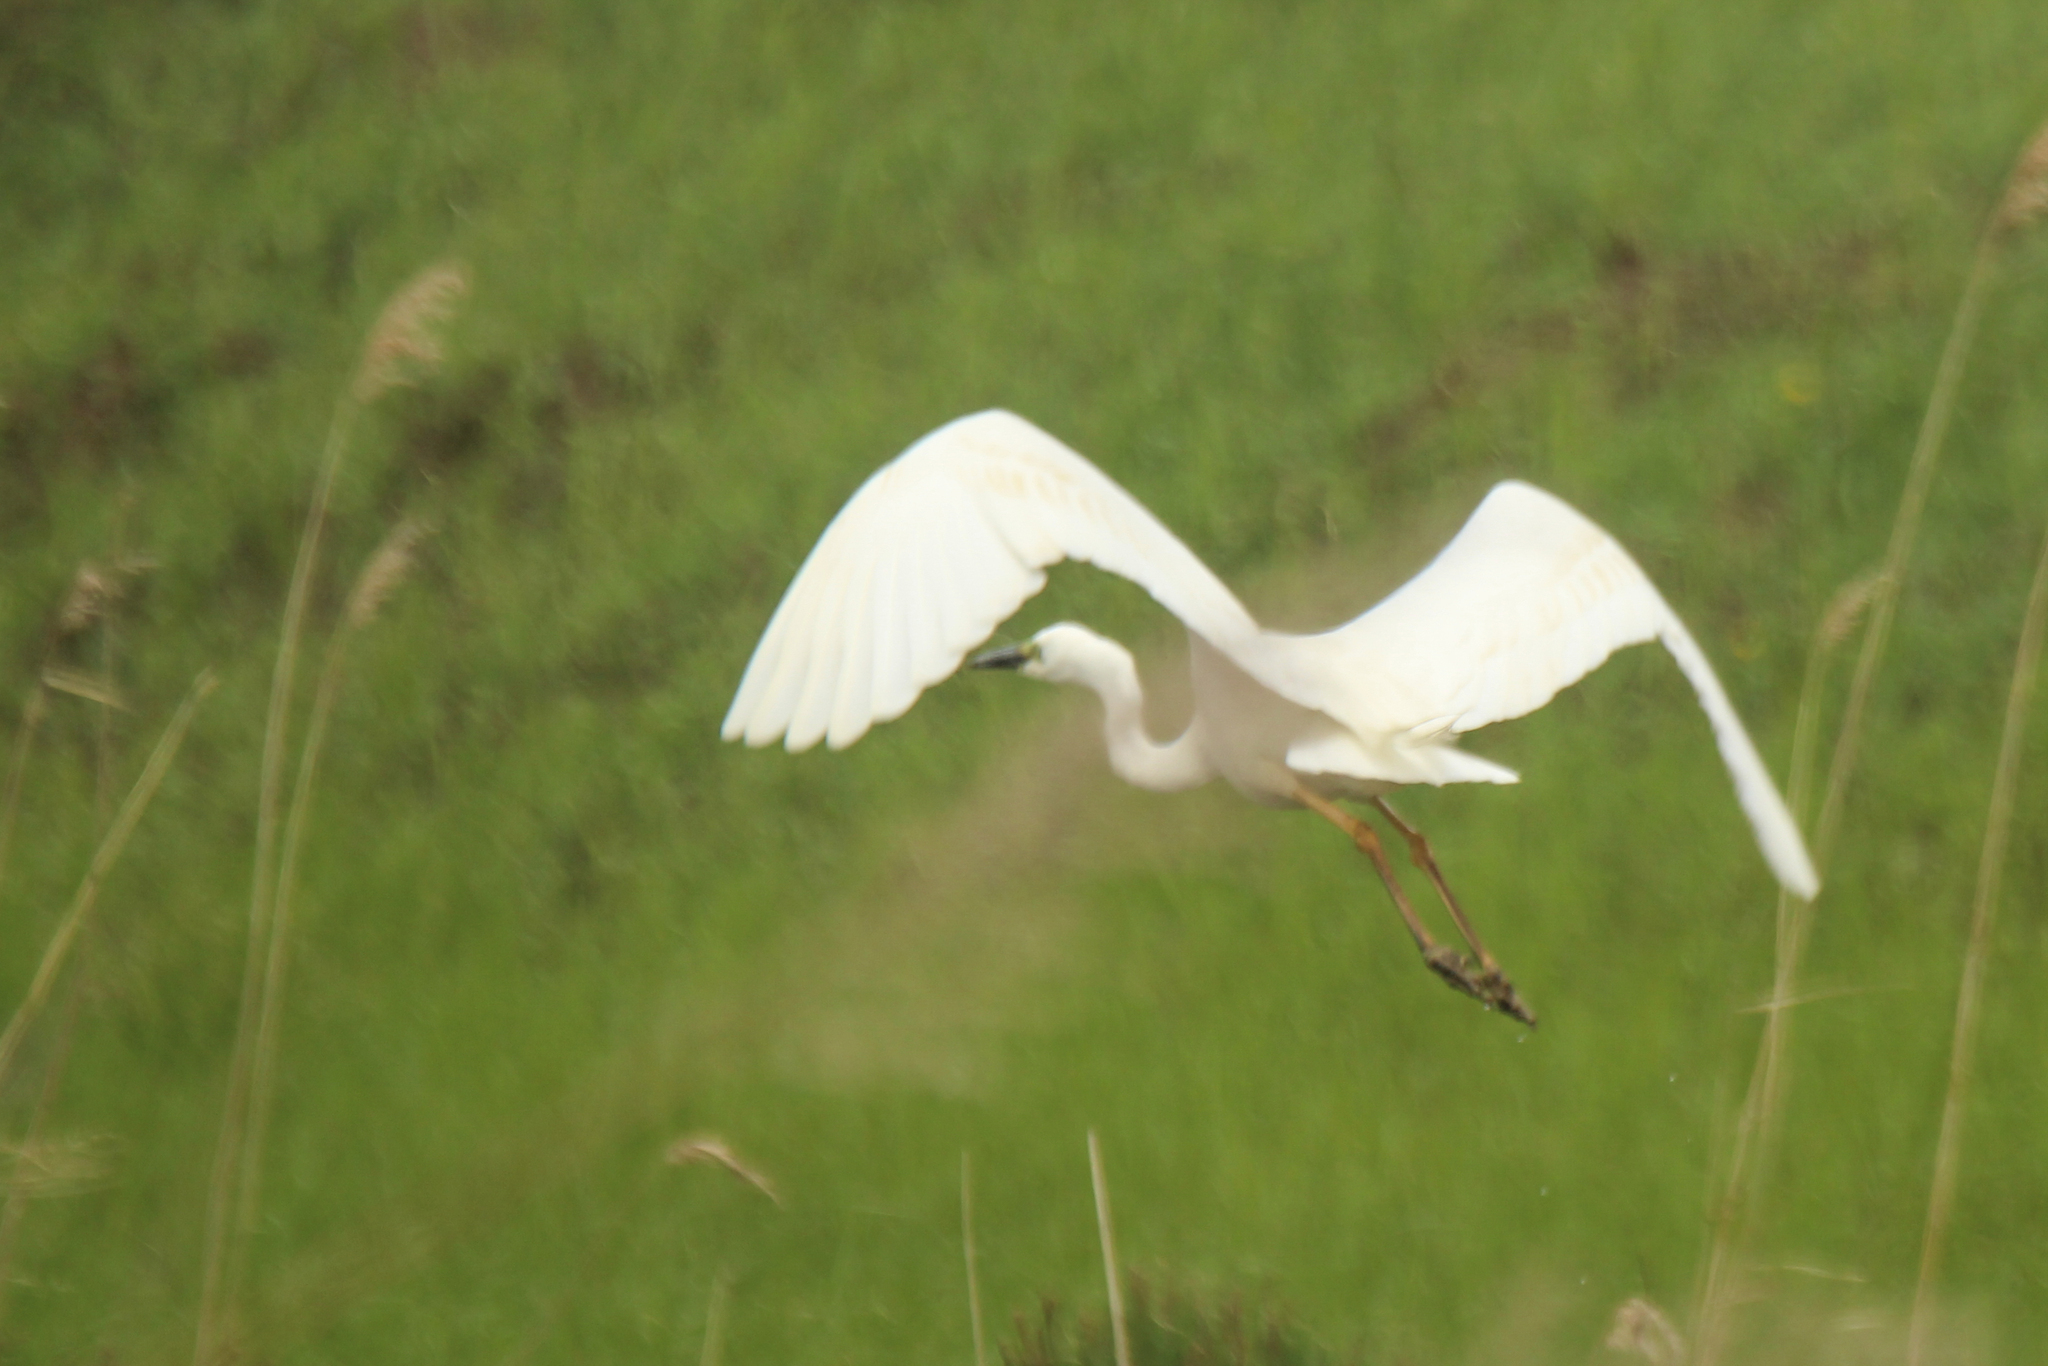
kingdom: Animalia
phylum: Chordata
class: Aves
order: Pelecaniformes
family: Ardeidae
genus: Ardea
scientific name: Ardea alba
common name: Great egret
